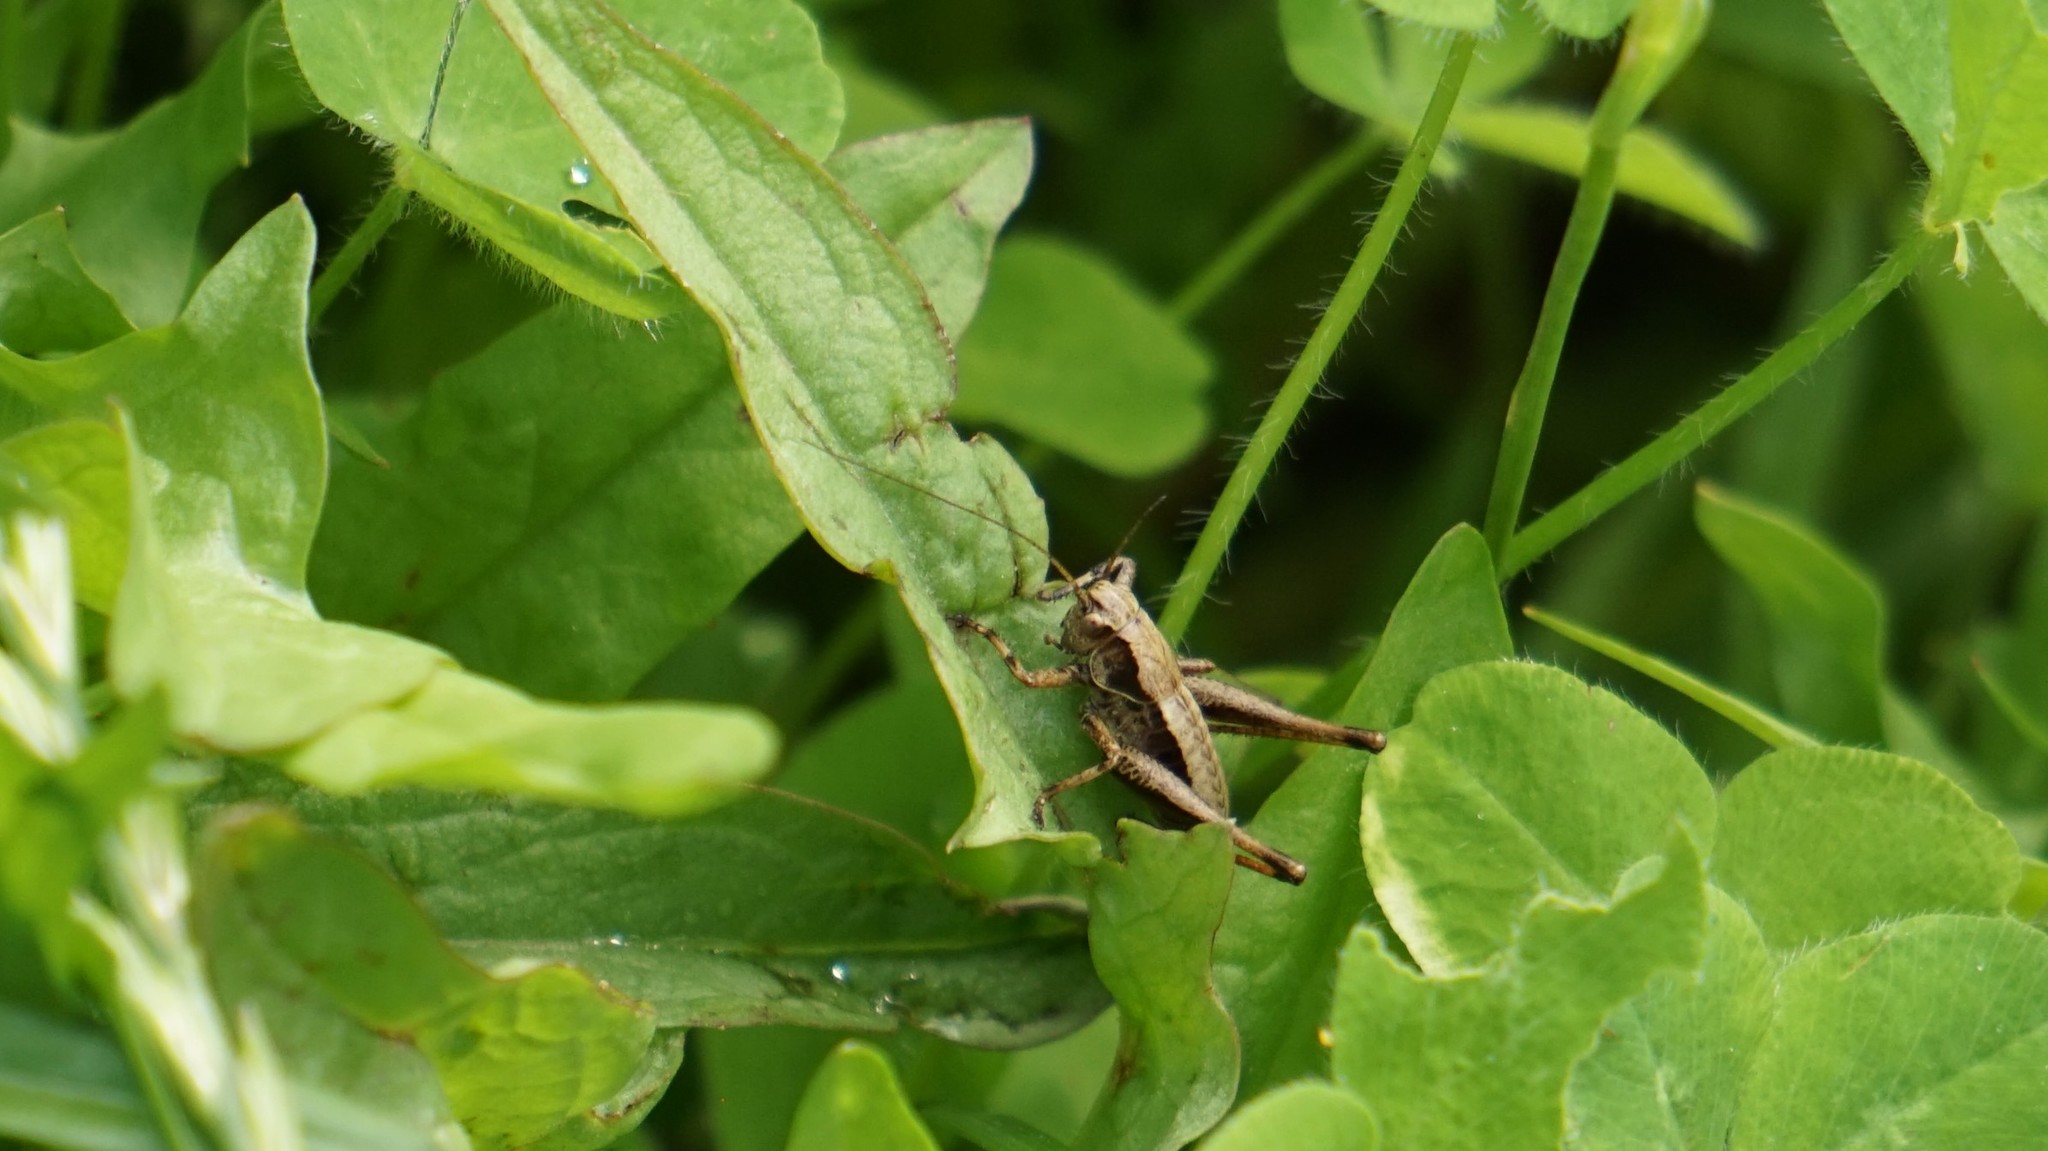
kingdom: Animalia
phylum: Arthropoda
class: Insecta
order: Orthoptera
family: Tettigoniidae
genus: Pholidoptera
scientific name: Pholidoptera griseoaptera
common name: Dark bush-cricket
